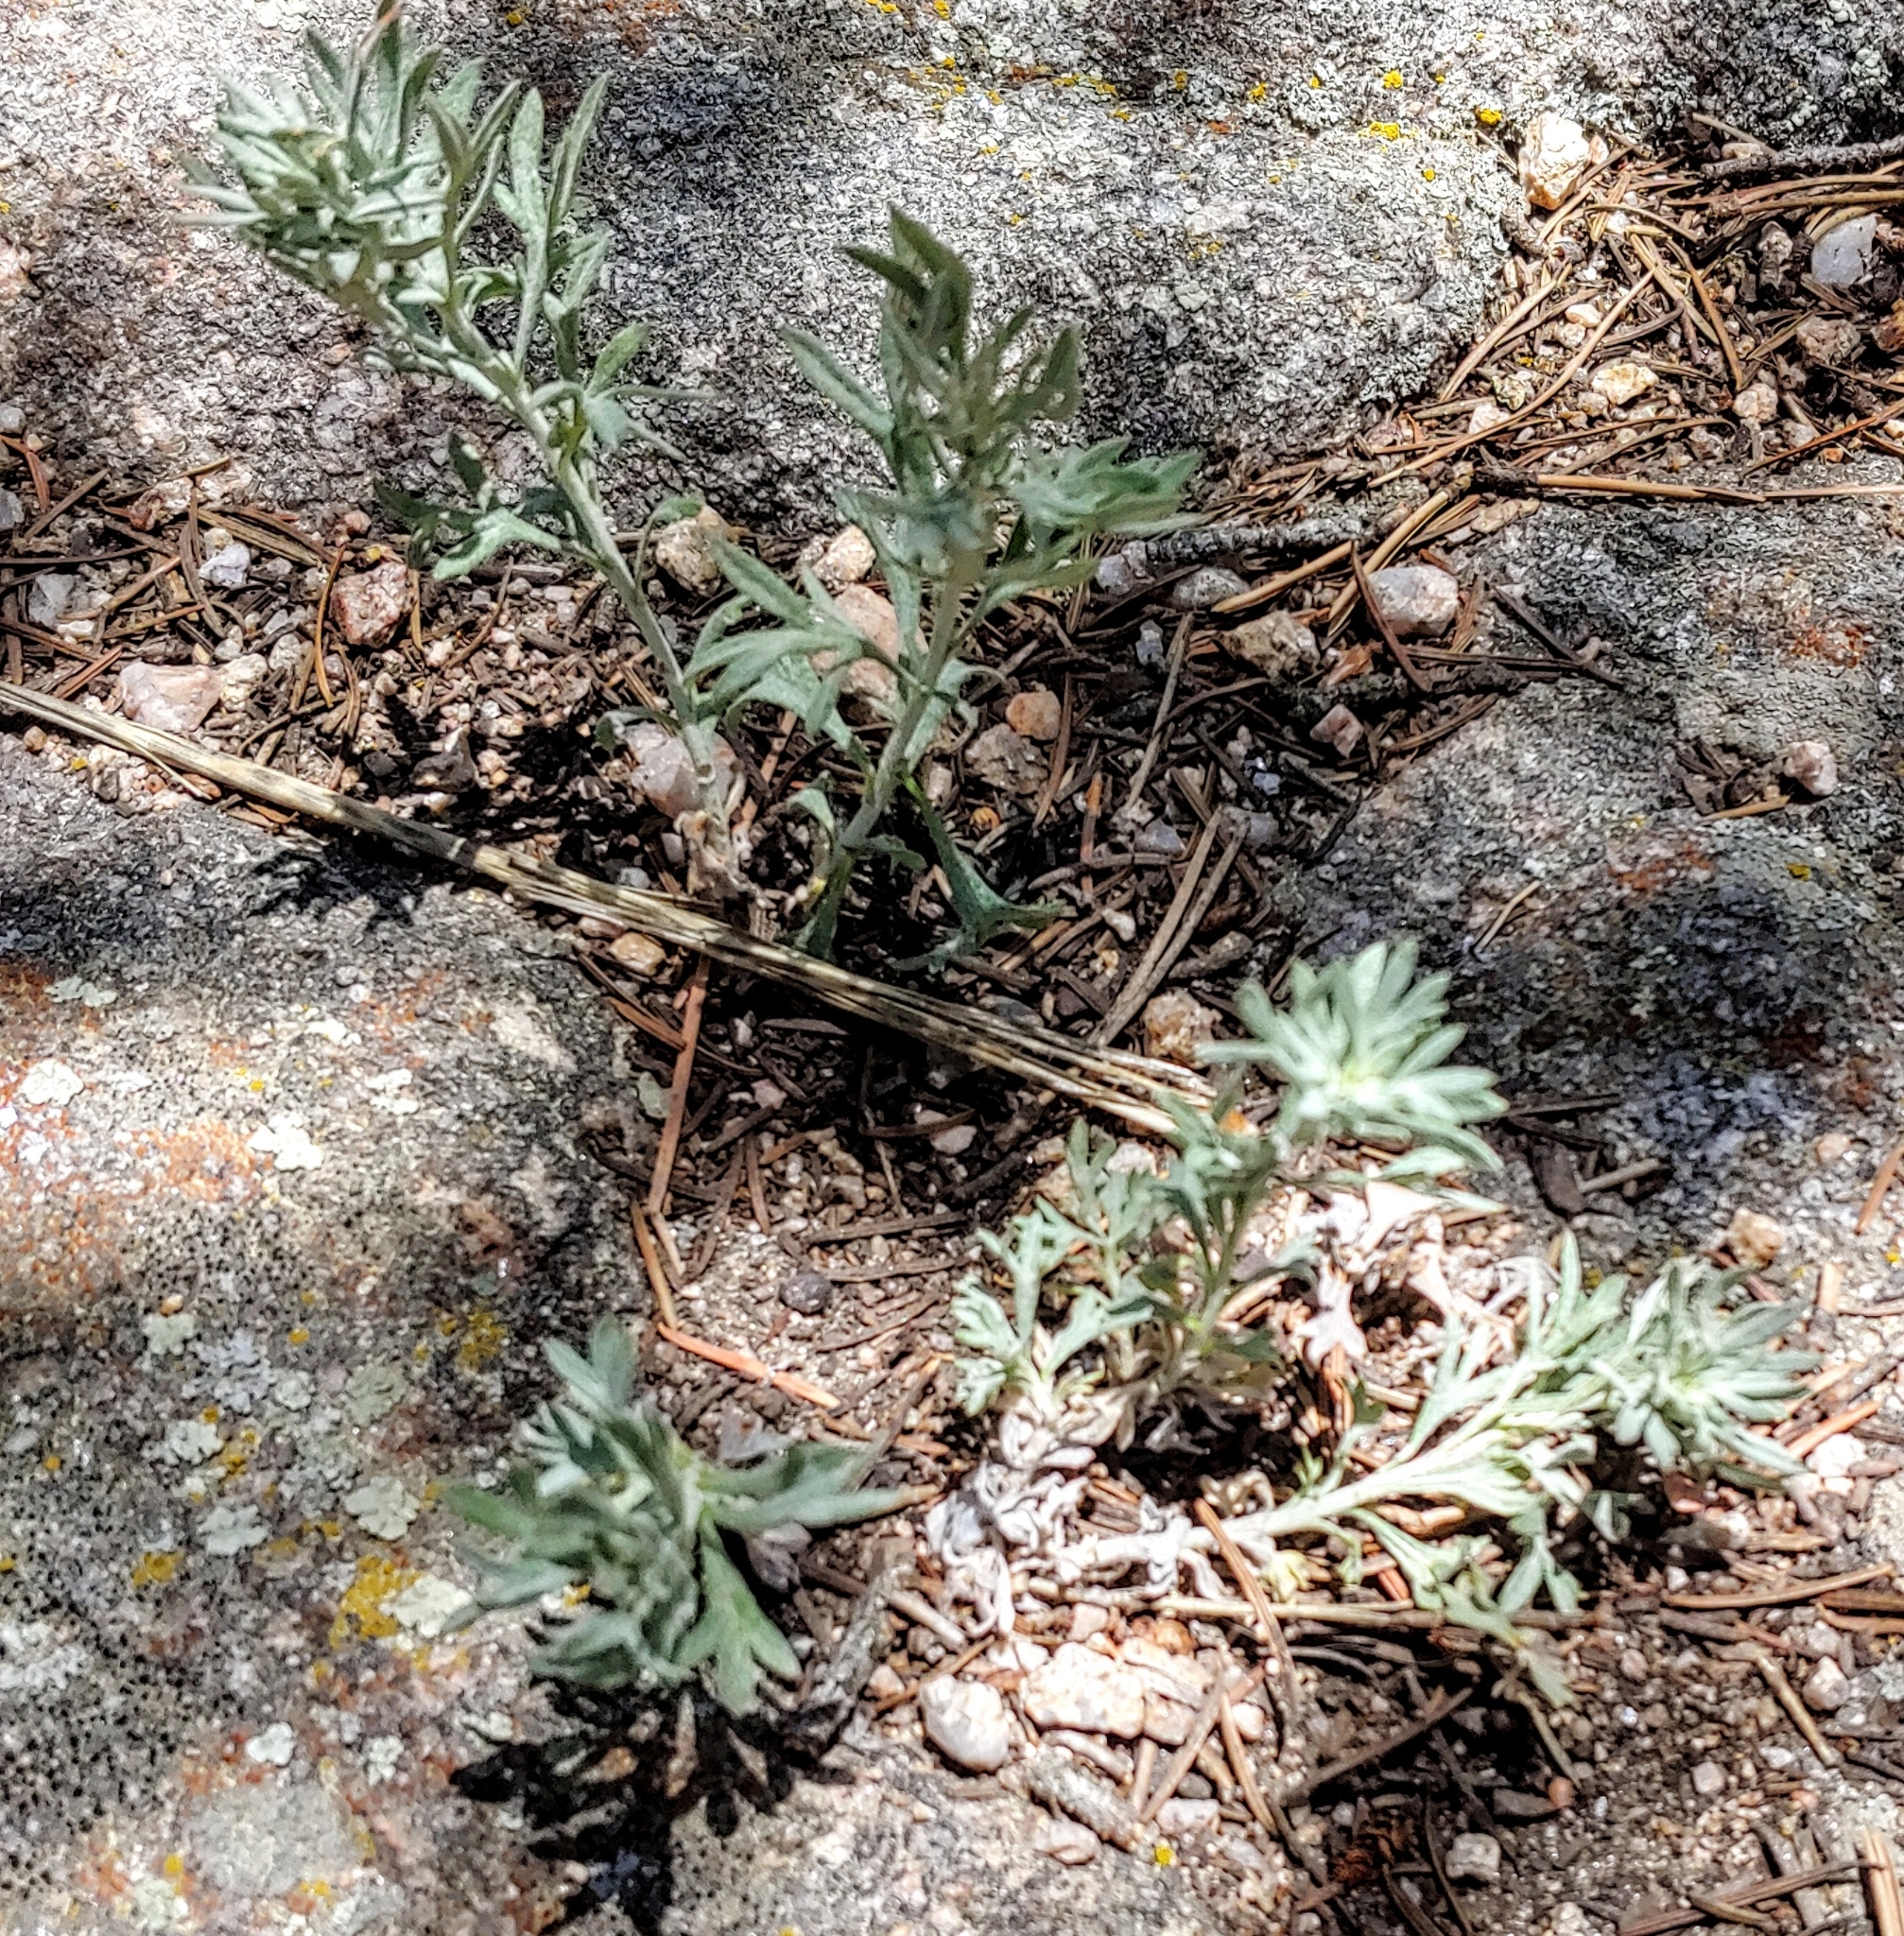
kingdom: Plantae
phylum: Tracheophyta
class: Magnoliopsida
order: Asterales
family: Asteraceae
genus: Artemisia
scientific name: Artemisia ludoviciana
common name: Western mugwort
